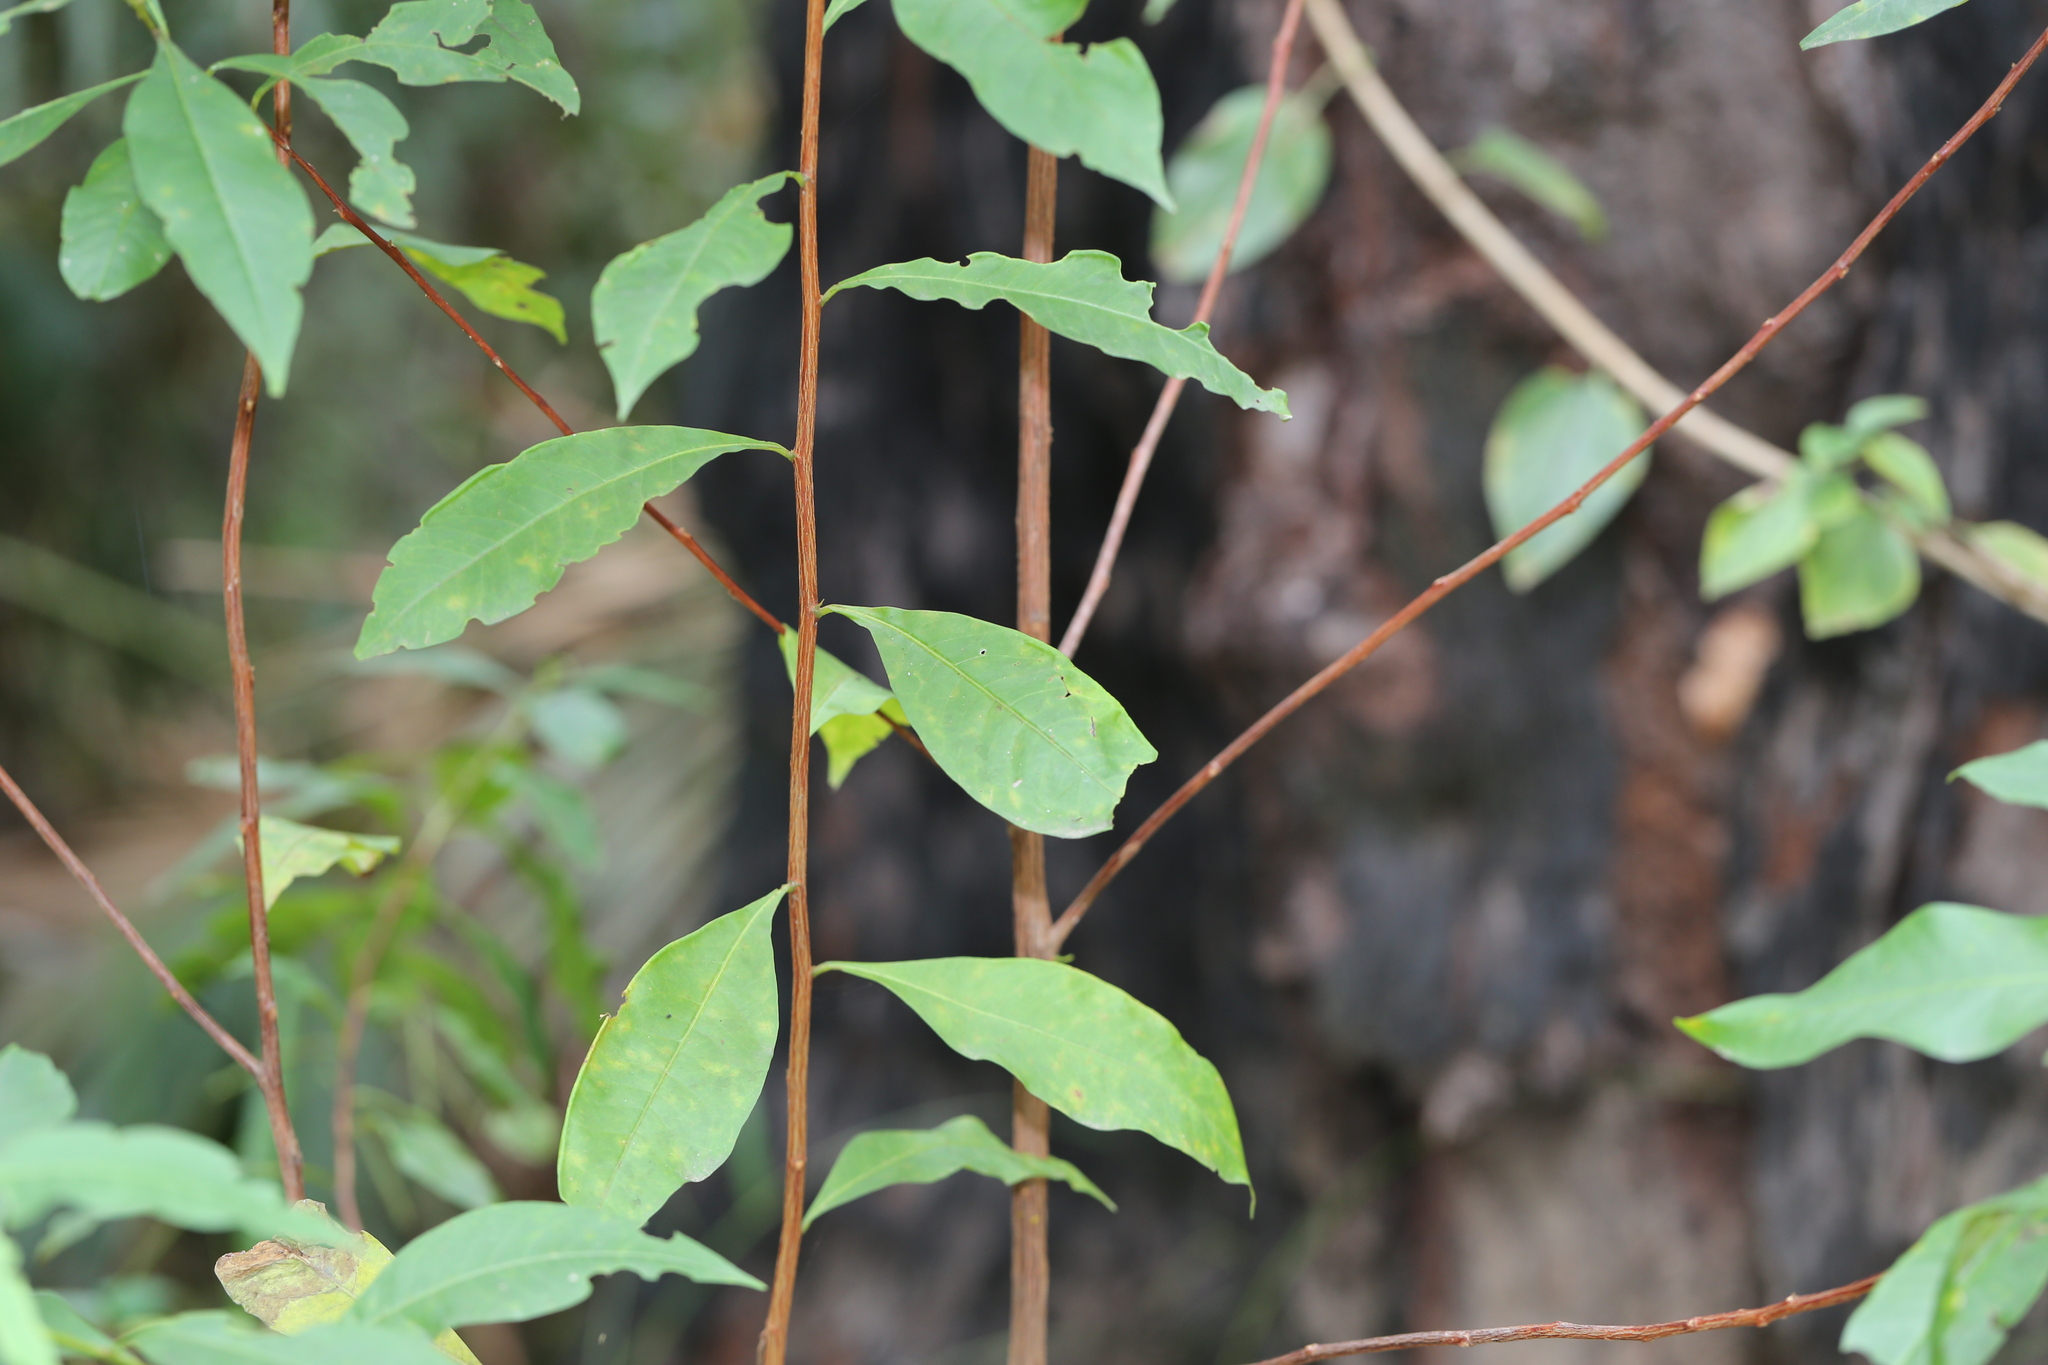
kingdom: Plantae
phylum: Tracheophyta
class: Magnoliopsida
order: Sapindales
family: Sapindaceae
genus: Dodonaea
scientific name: Dodonaea triquetra
